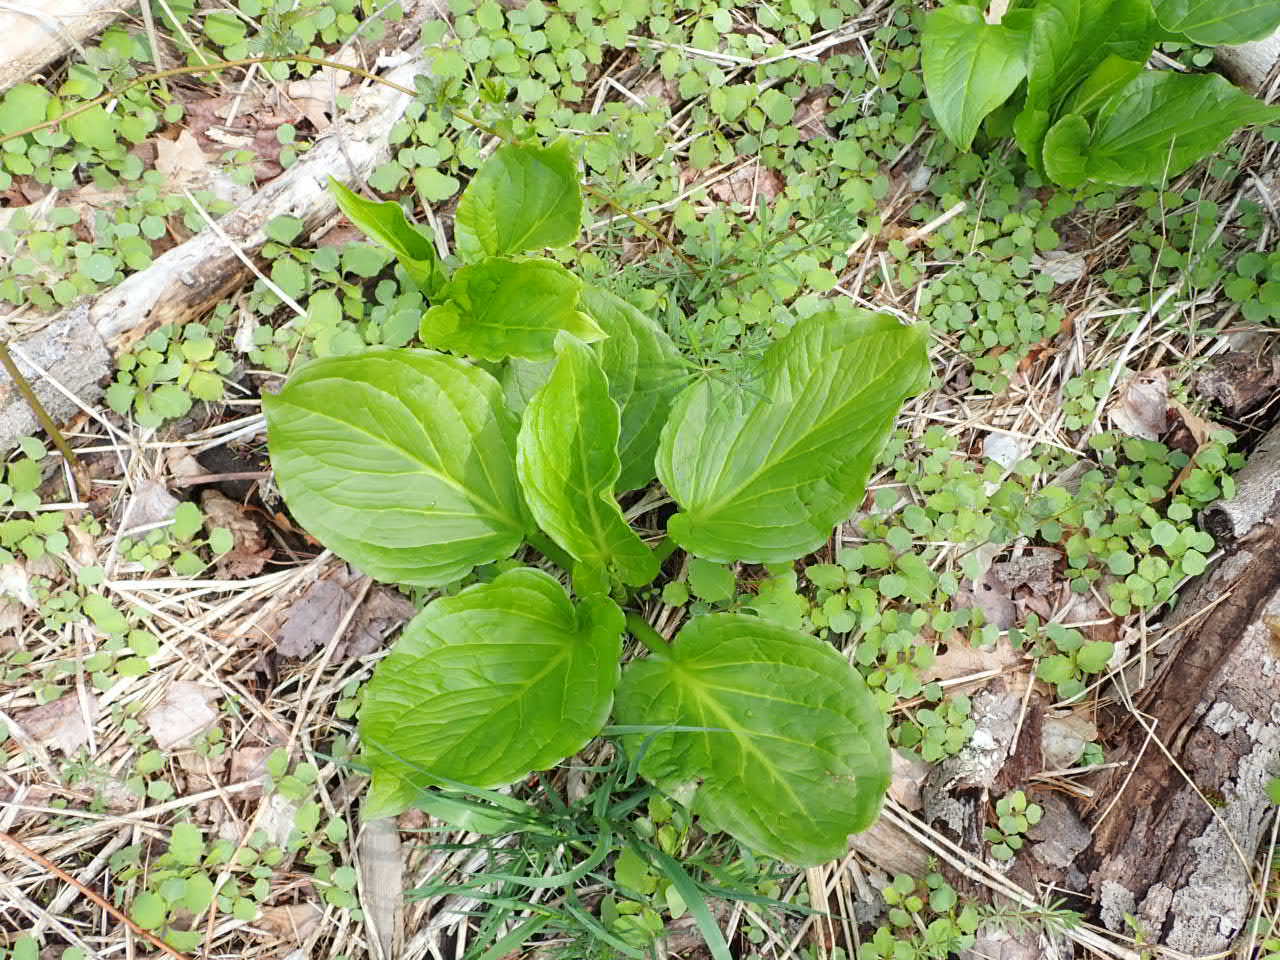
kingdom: Plantae
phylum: Tracheophyta
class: Liliopsida
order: Alismatales
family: Araceae
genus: Symplocarpus
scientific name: Symplocarpus foetidus
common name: Eastern skunk cabbage
